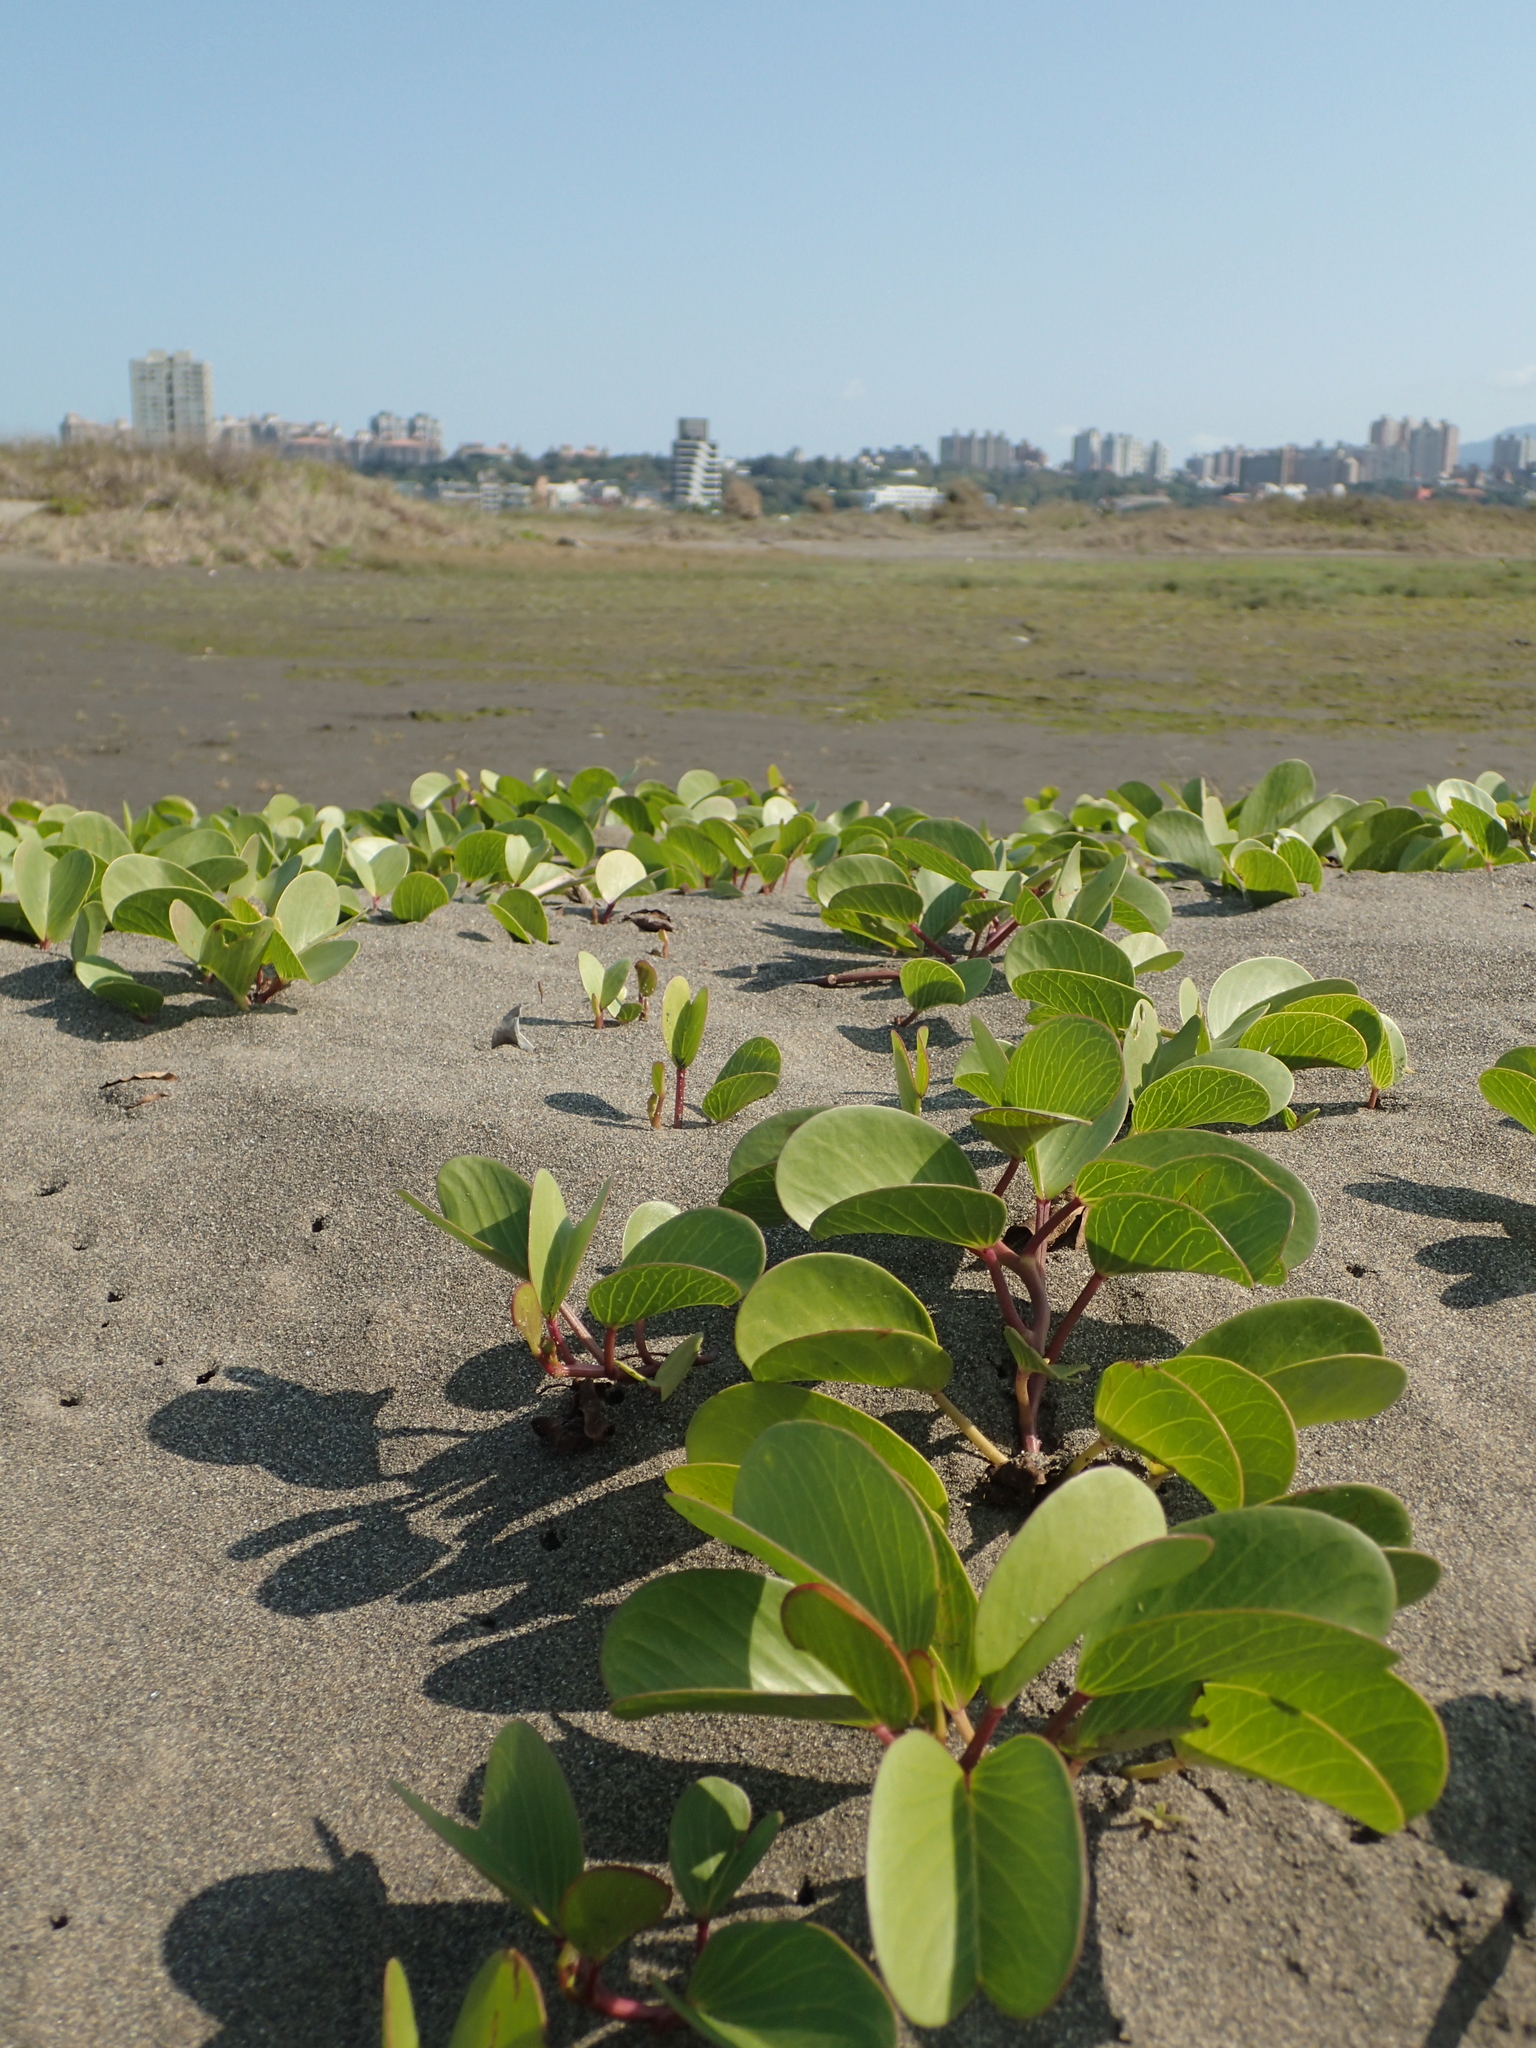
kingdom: Plantae
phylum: Tracheophyta
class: Magnoliopsida
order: Solanales
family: Convolvulaceae
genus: Ipomoea
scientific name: Ipomoea pes-caprae
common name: Beach morning glory
